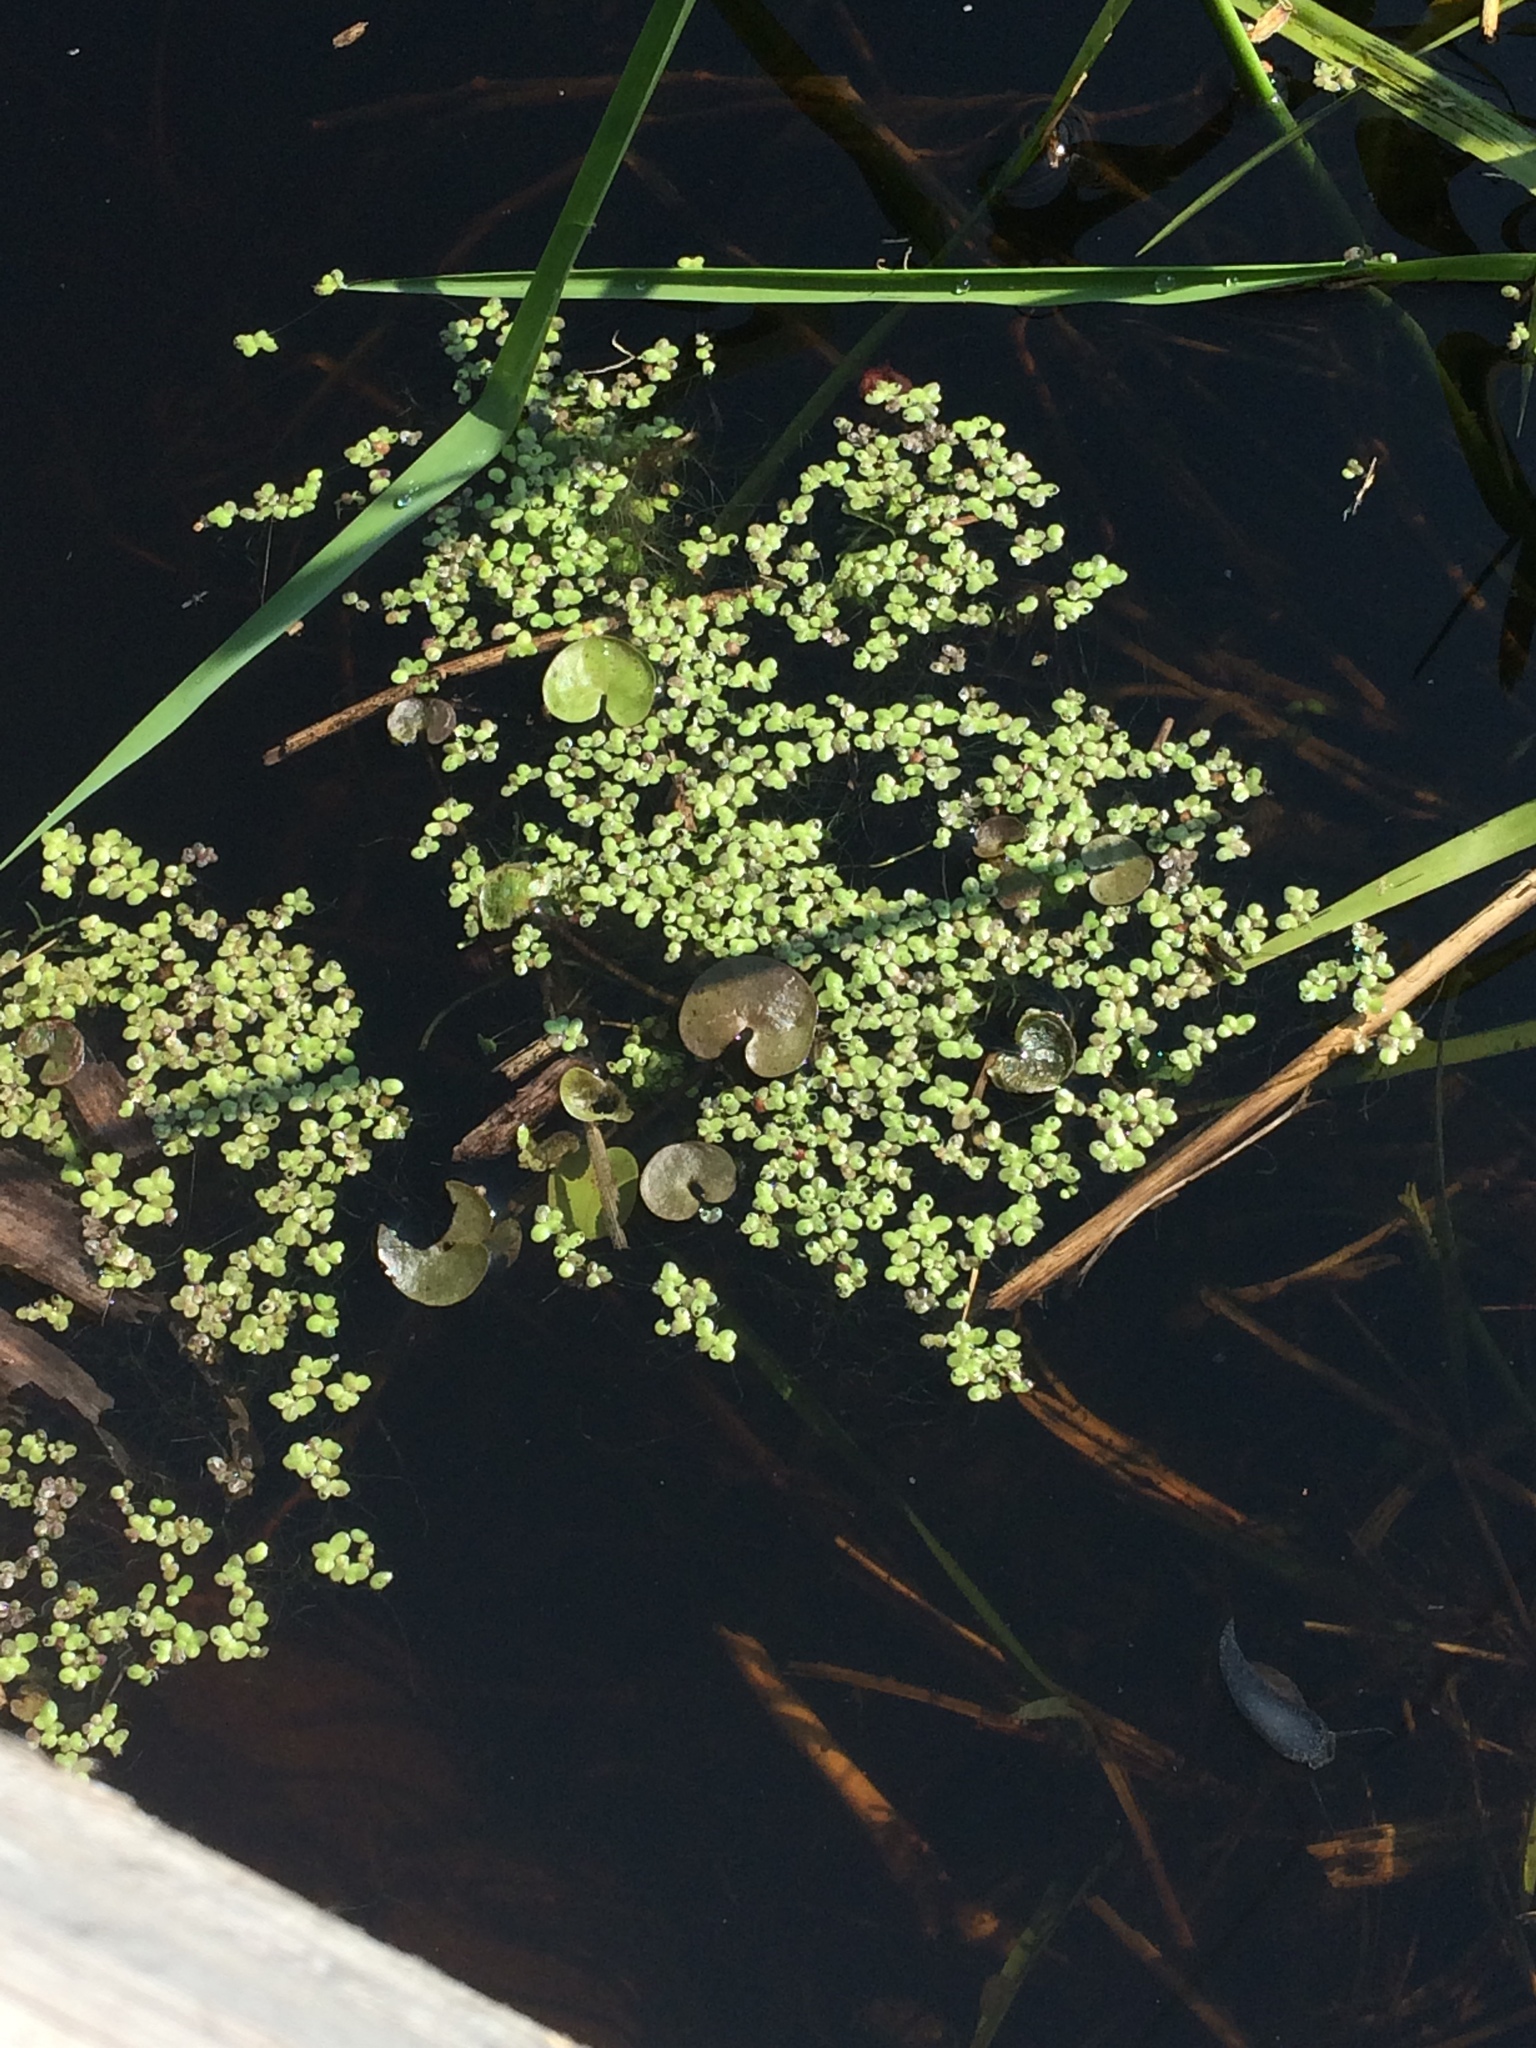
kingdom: Plantae
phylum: Tracheophyta
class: Liliopsida
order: Alismatales
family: Araceae
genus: Lemna
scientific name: Lemna minor
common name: Common duckweed
